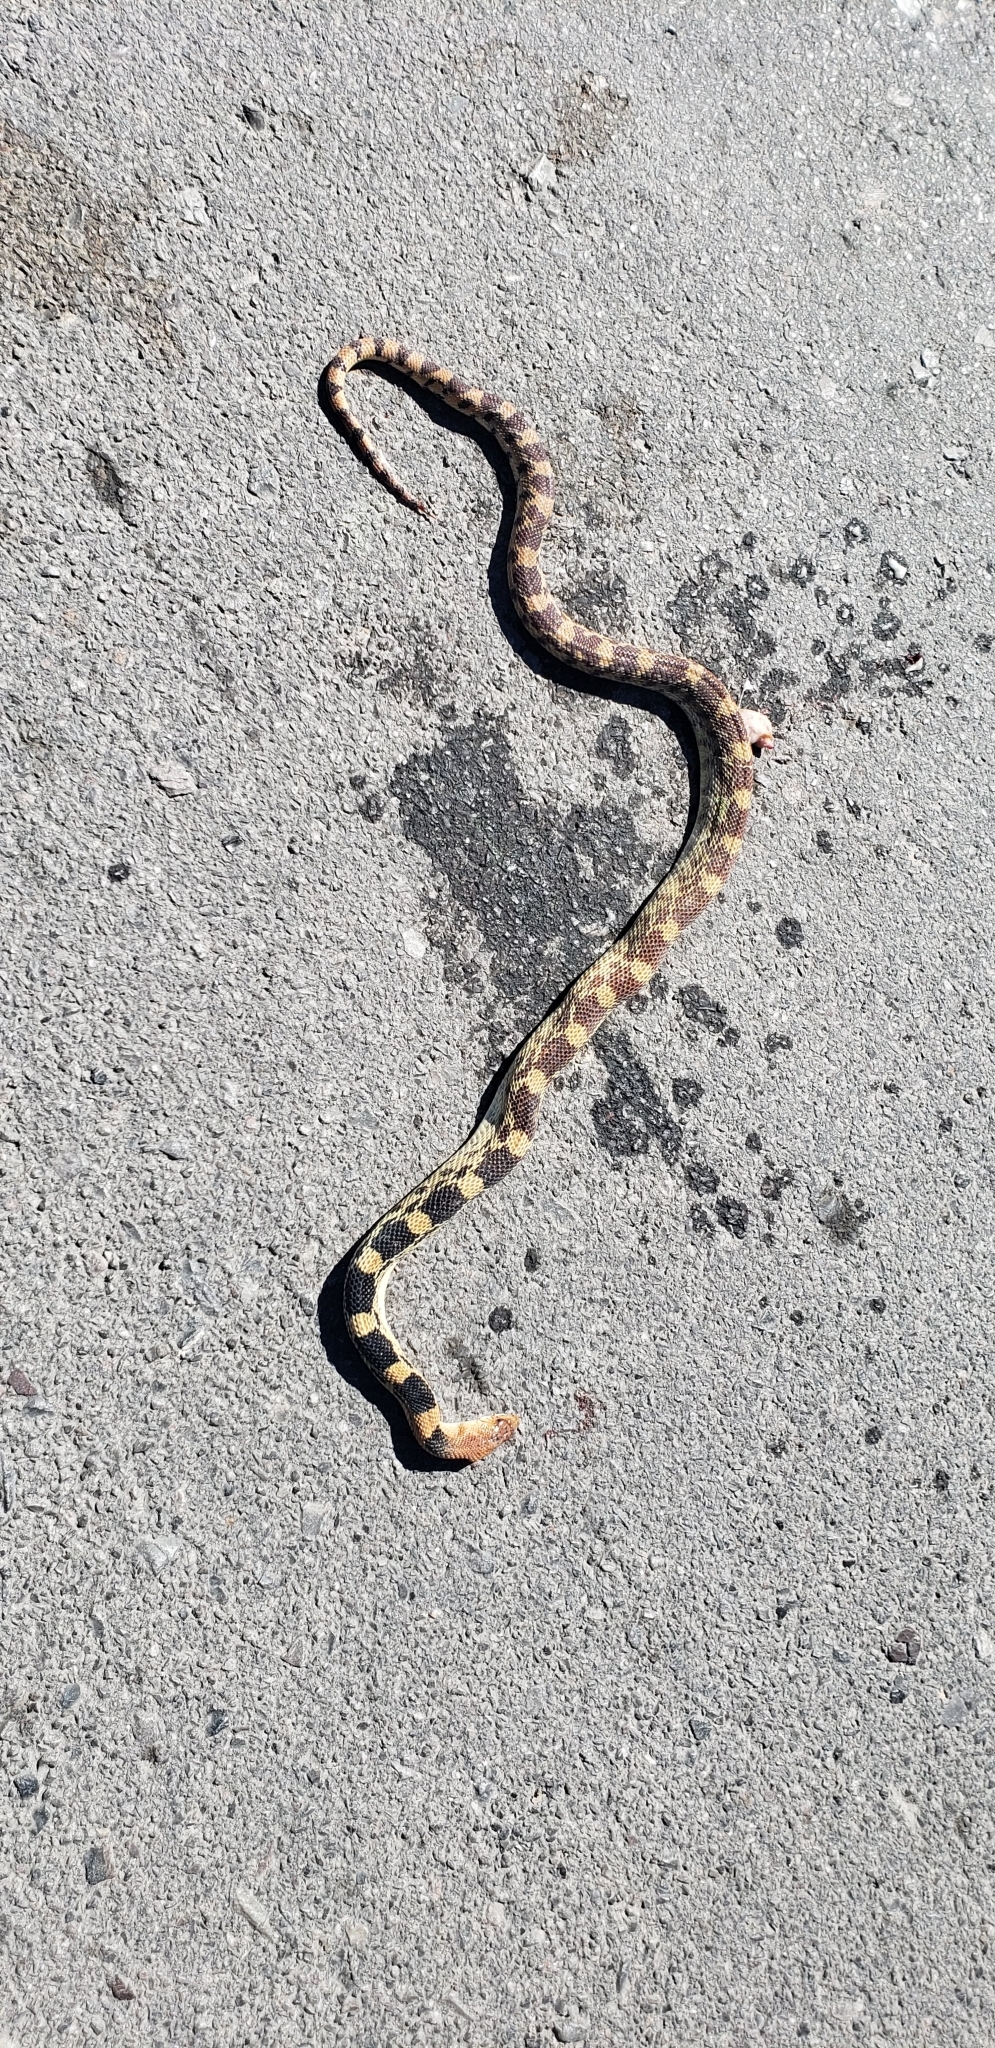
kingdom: Animalia
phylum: Chordata
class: Squamata
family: Colubridae
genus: Pituophis
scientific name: Pituophis deppei
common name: Mexican bull snake
